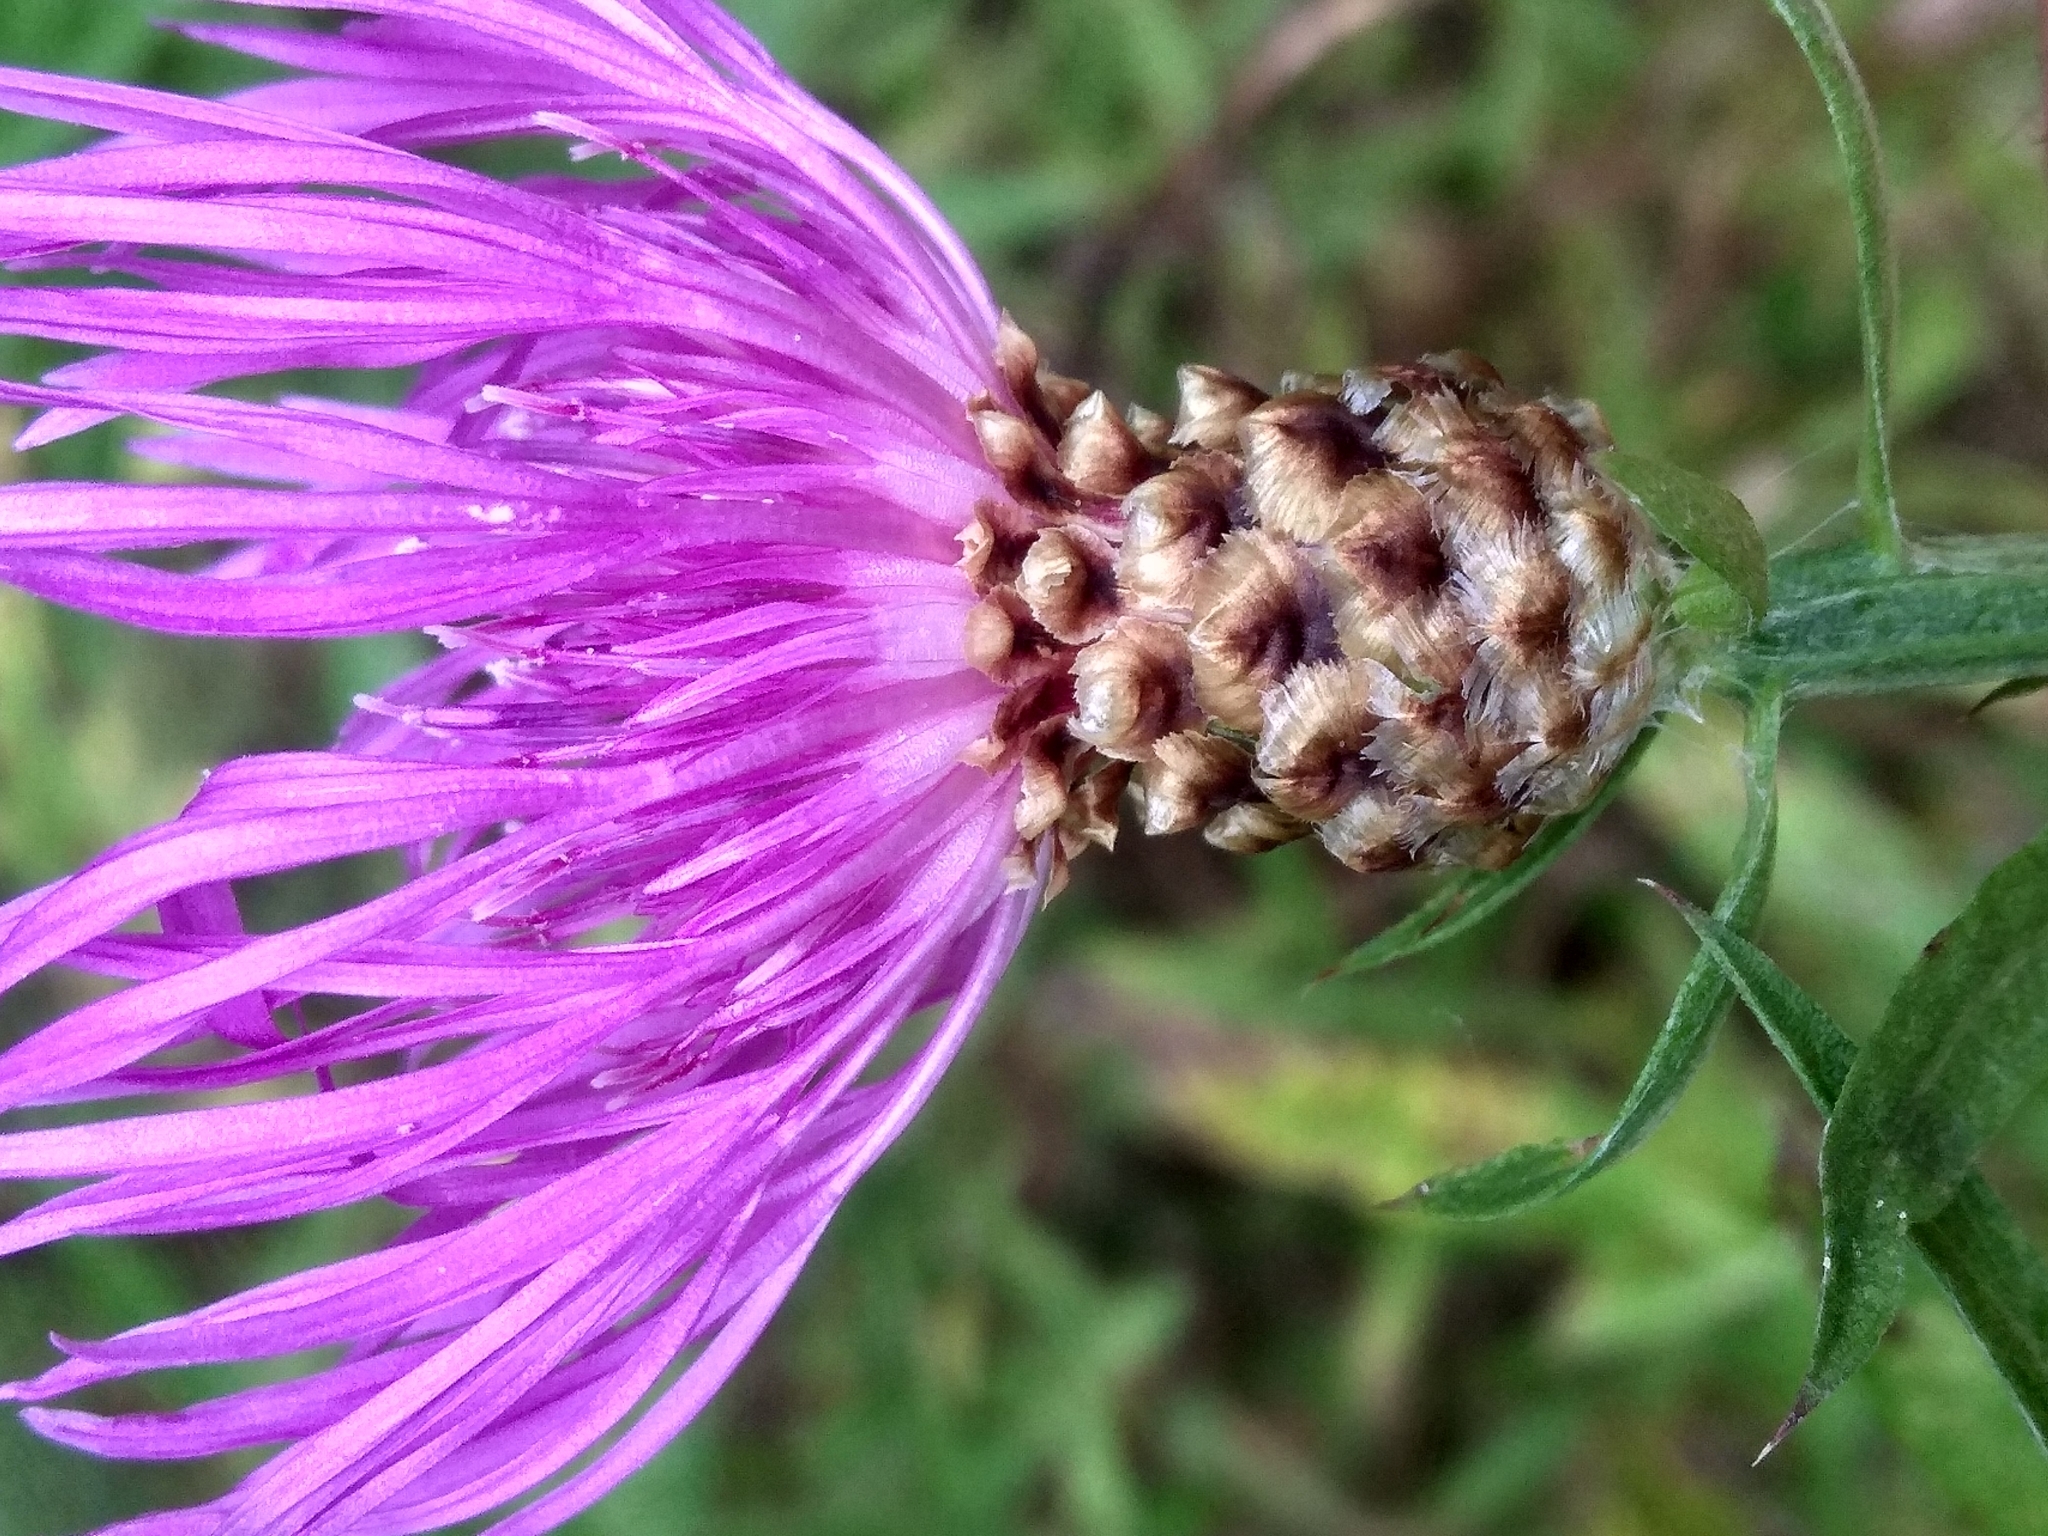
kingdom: Plantae
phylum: Tracheophyta
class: Magnoliopsida
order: Asterales
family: Asteraceae
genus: Centaurea
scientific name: Centaurea jacea
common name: Brown knapweed
